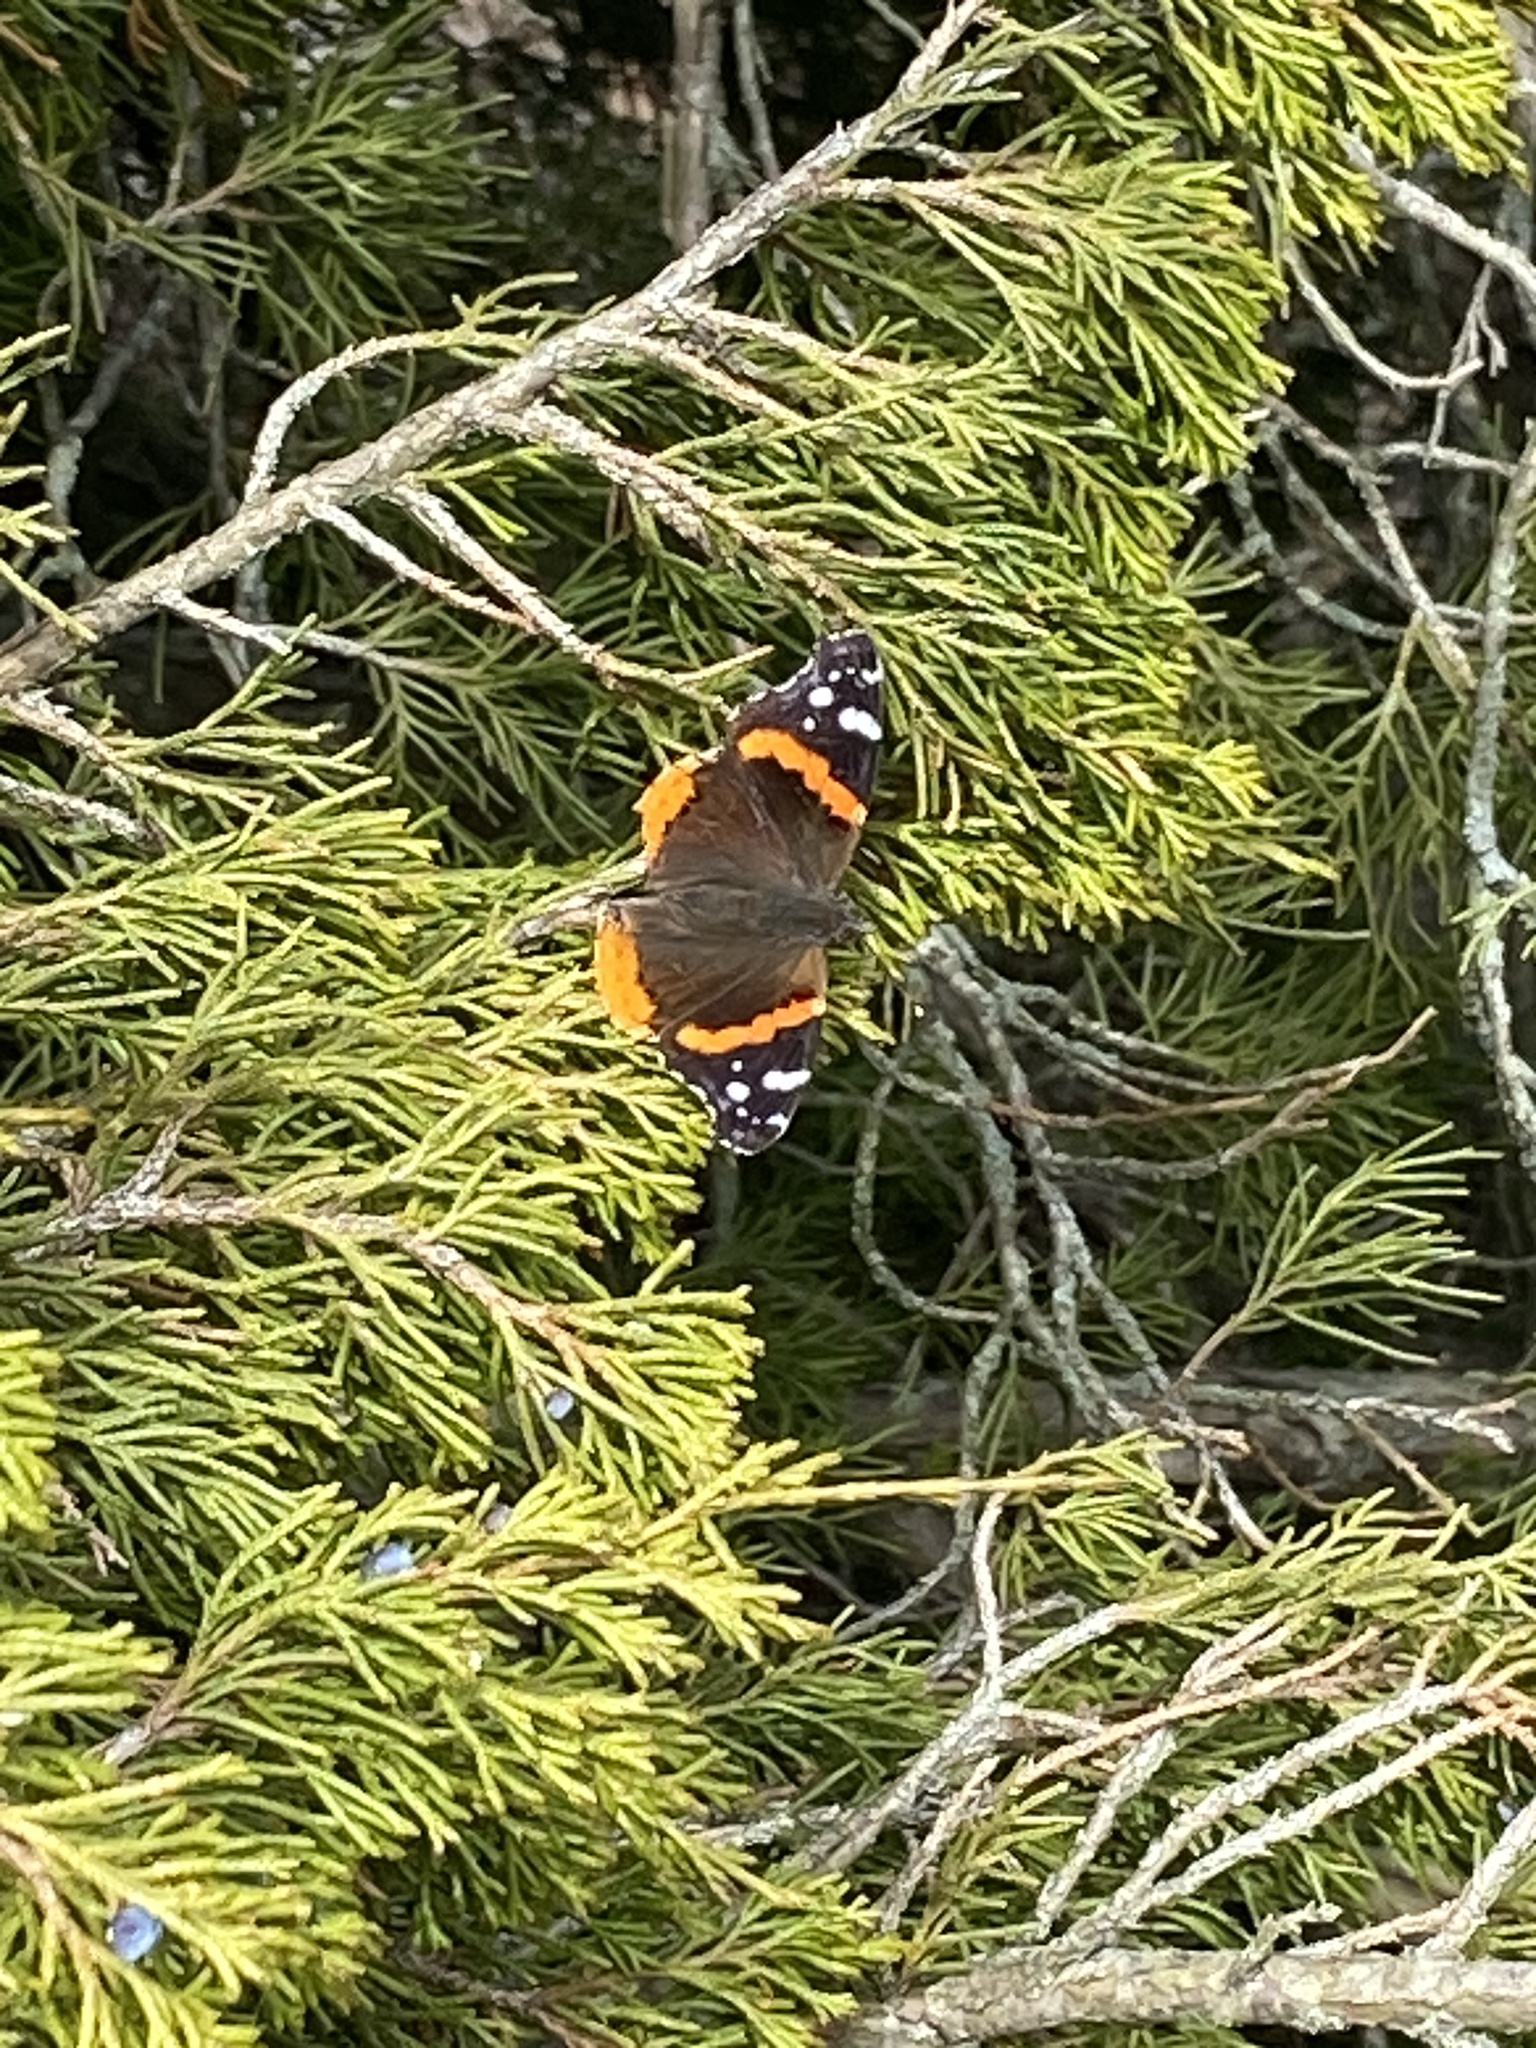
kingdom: Animalia
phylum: Arthropoda
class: Insecta
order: Lepidoptera
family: Nymphalidae
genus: Vanessa
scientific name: Vanessa atalanta
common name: Red admiral
